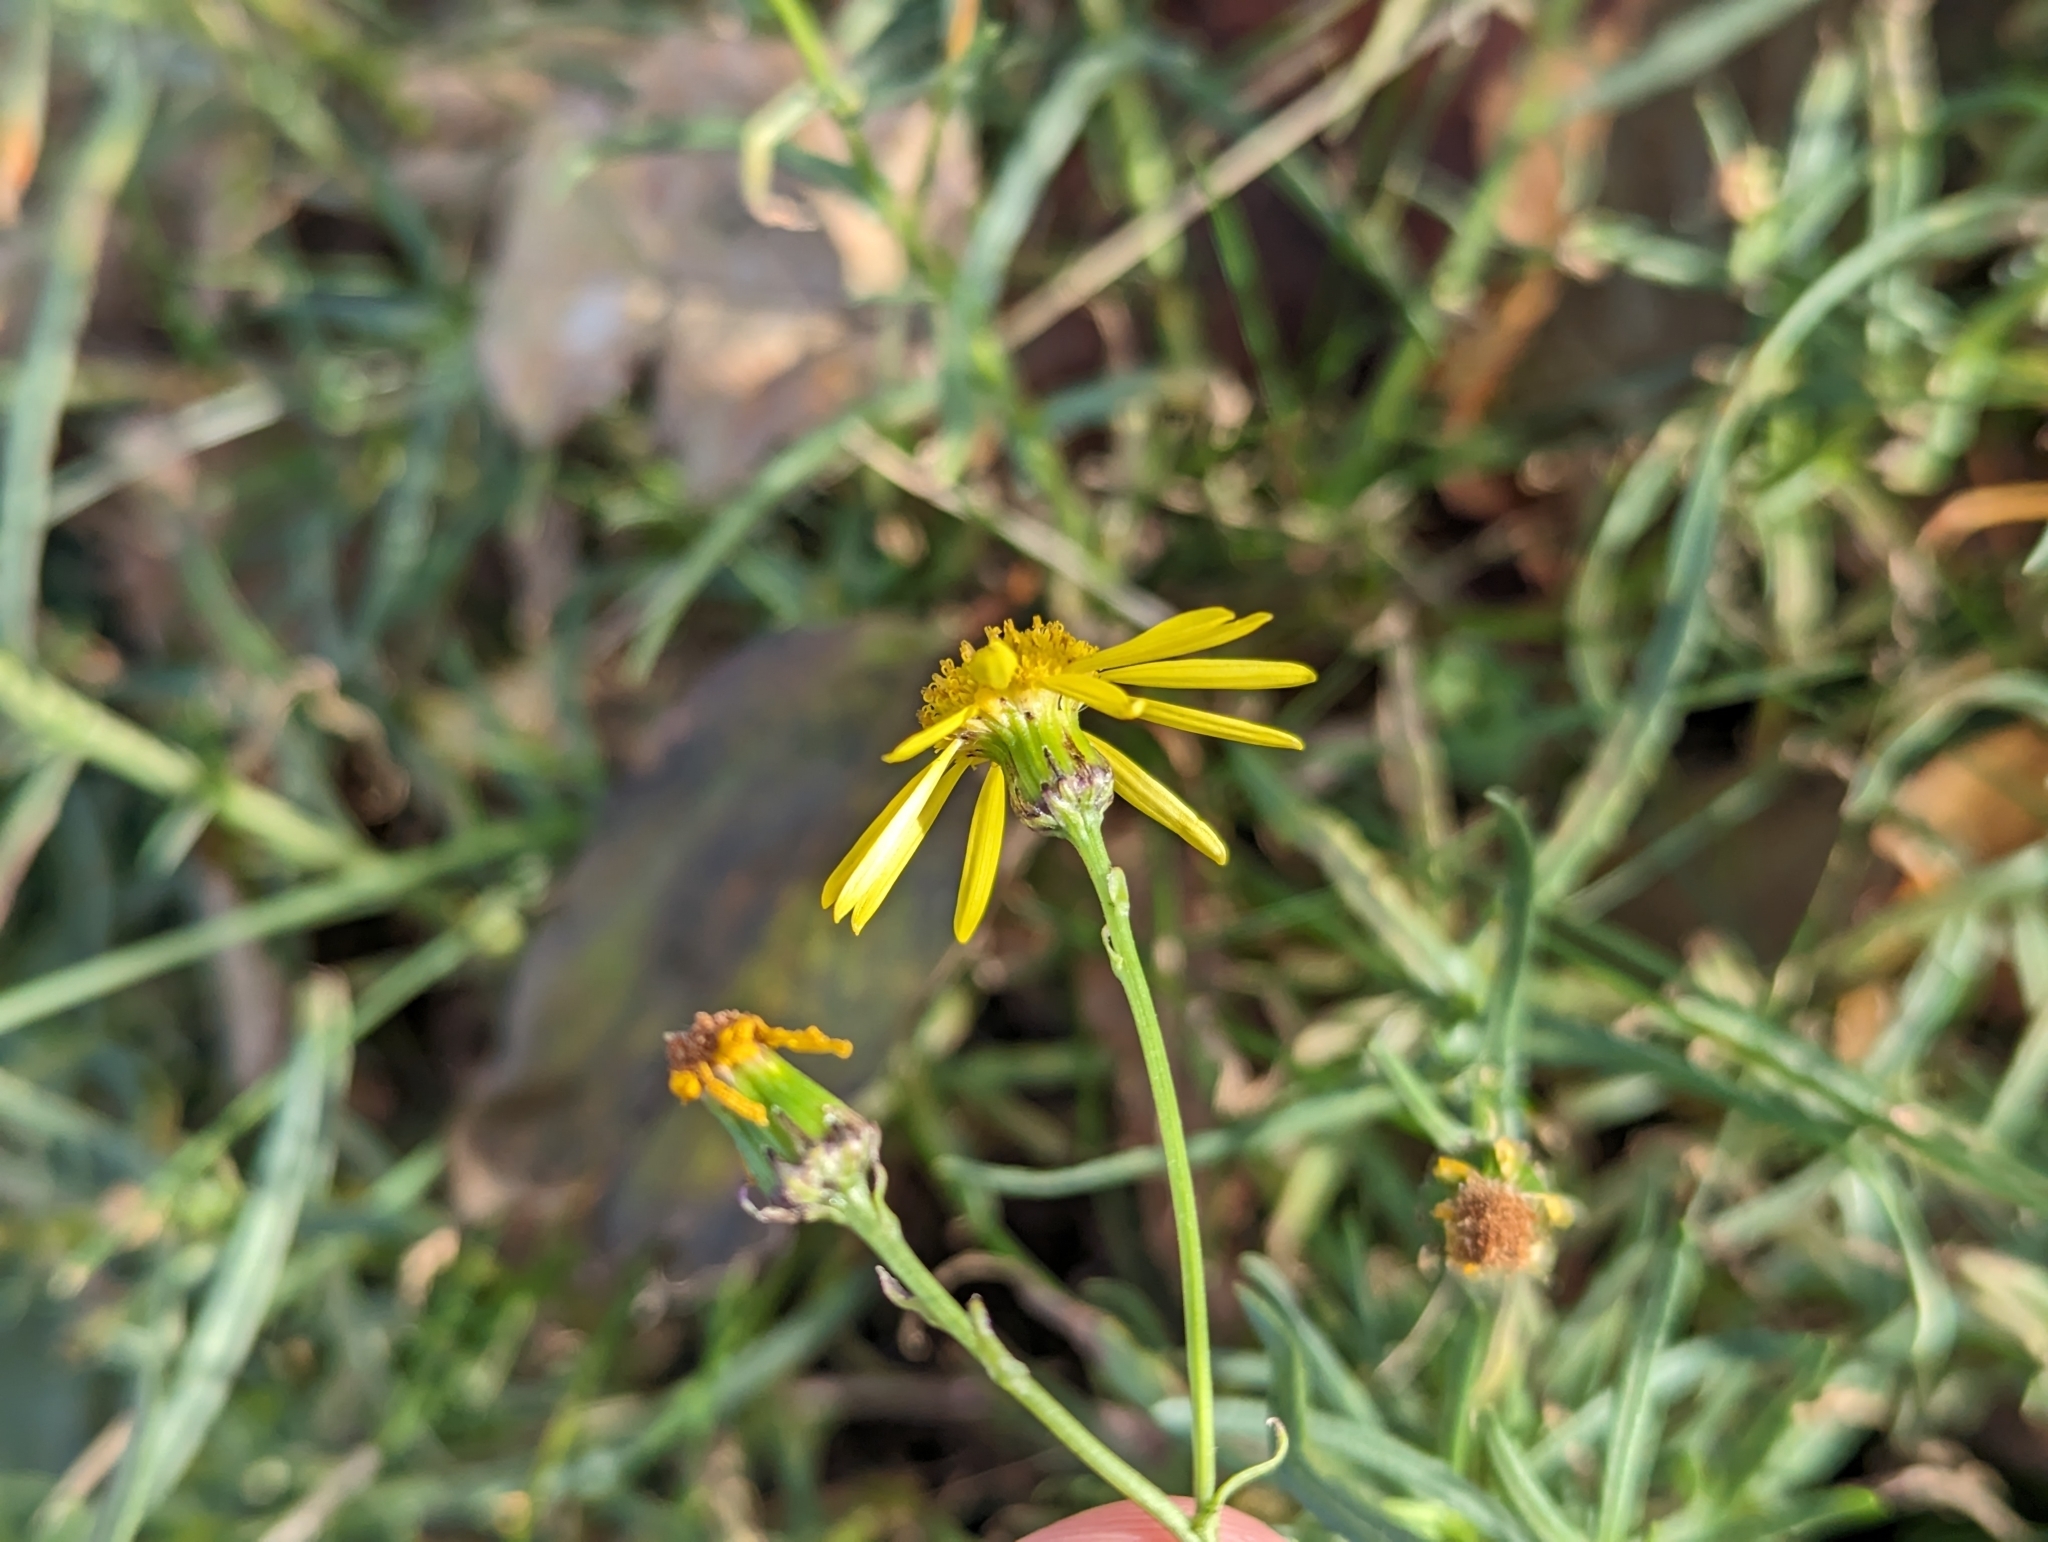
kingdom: Plantae
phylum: Tracheophyta
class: Magnoliopsida
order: Asterales
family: Asteraceae
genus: Senecio
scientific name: Senecio inaequidens
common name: Narrow-leaved ragwort
